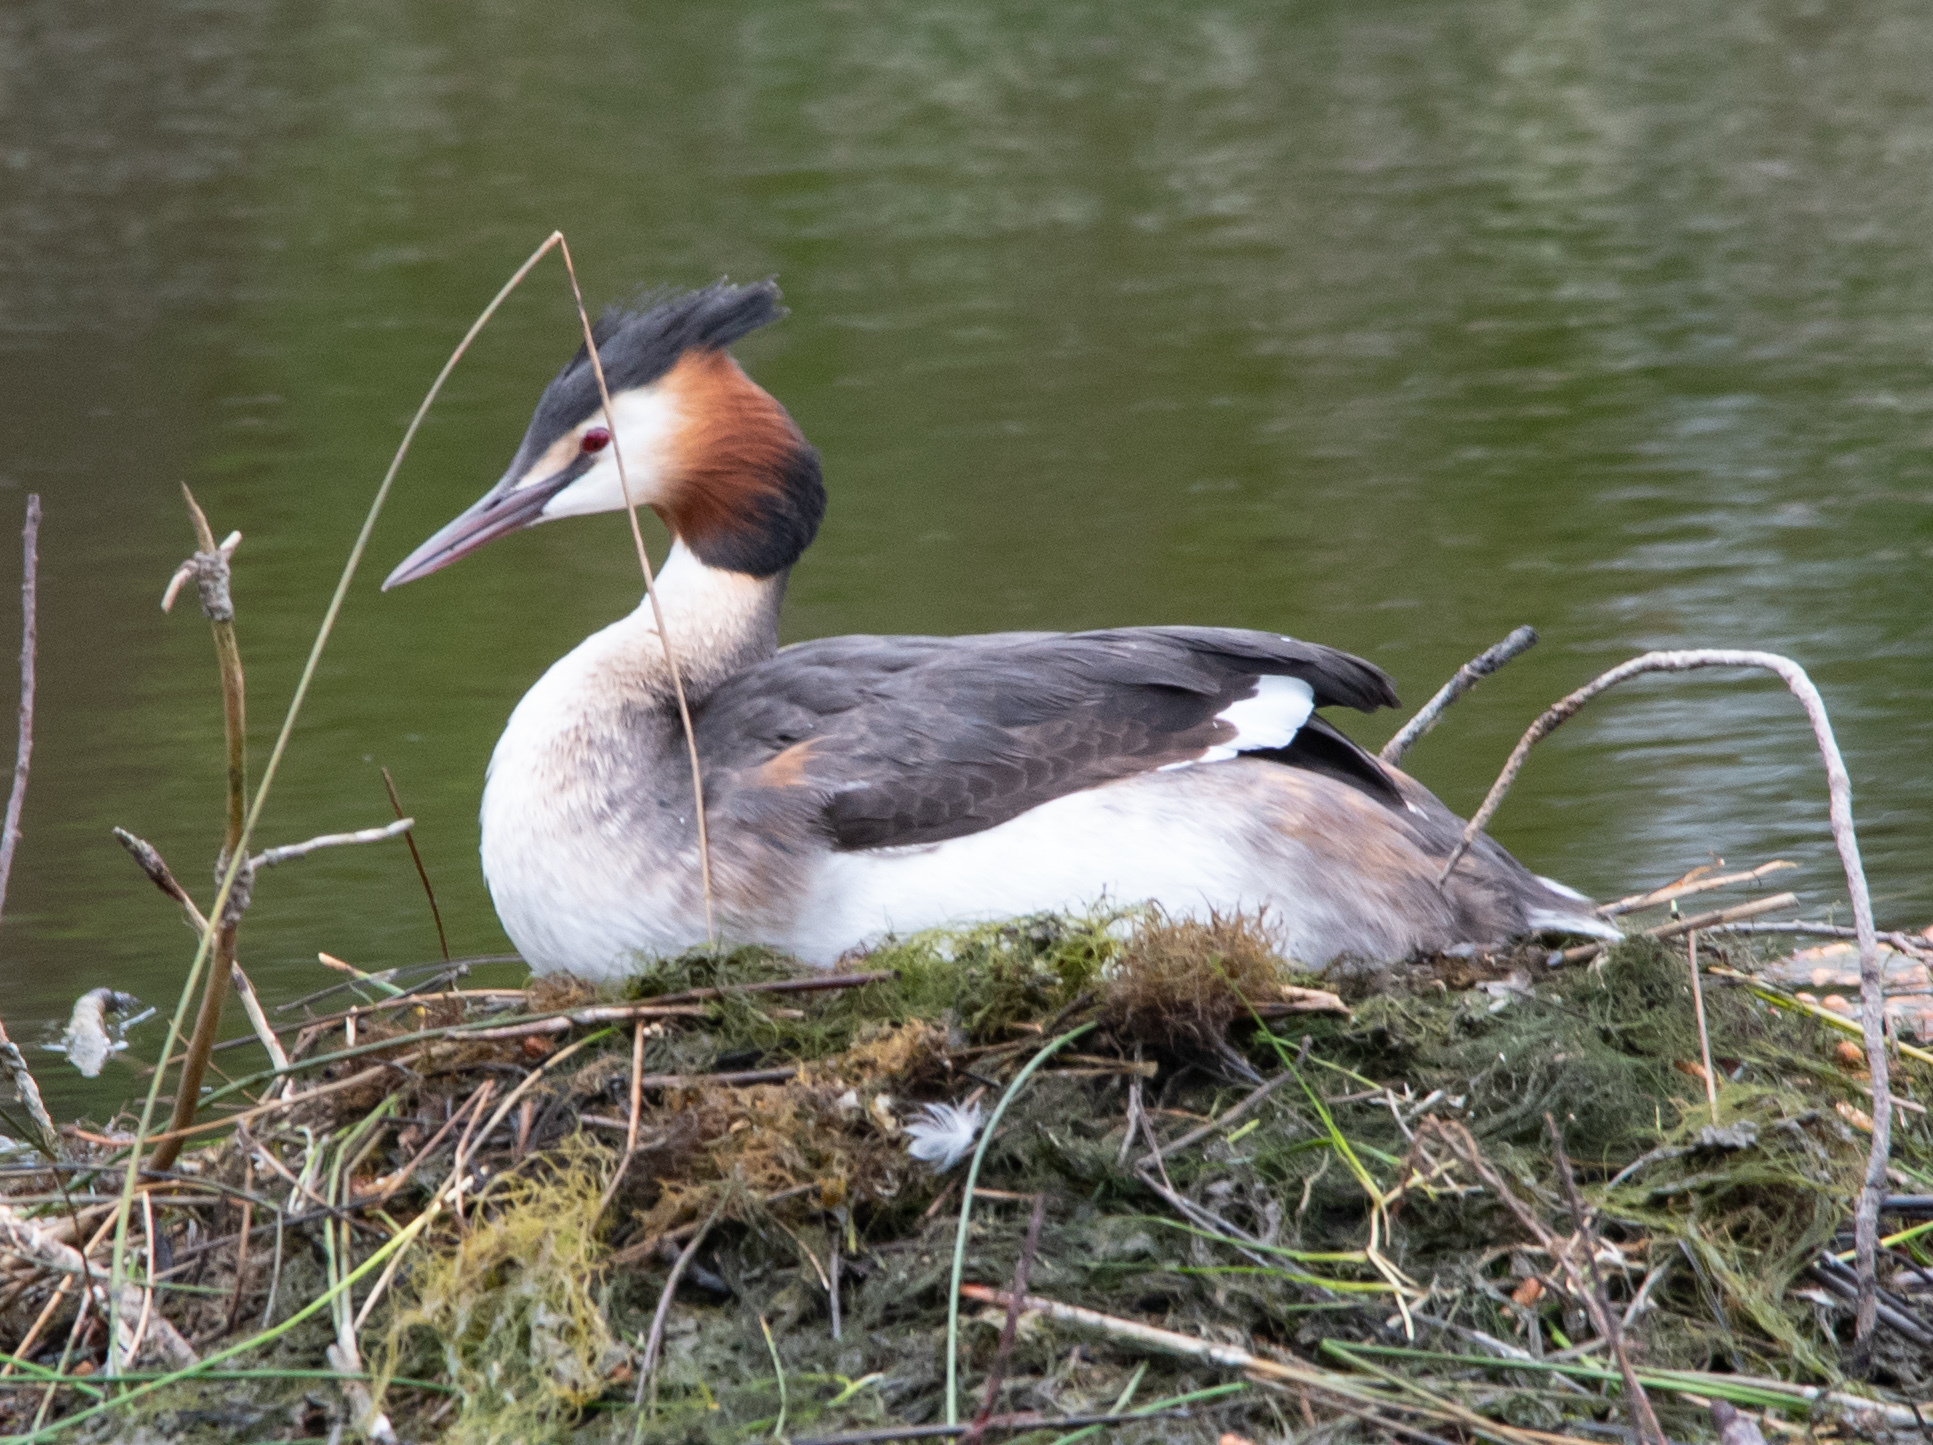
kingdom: Animalia
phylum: Chordata
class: Aves
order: Podicipediformes
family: Podicipedidae
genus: Podiceps
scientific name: Podiceps cristatus
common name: Great crested grebe
